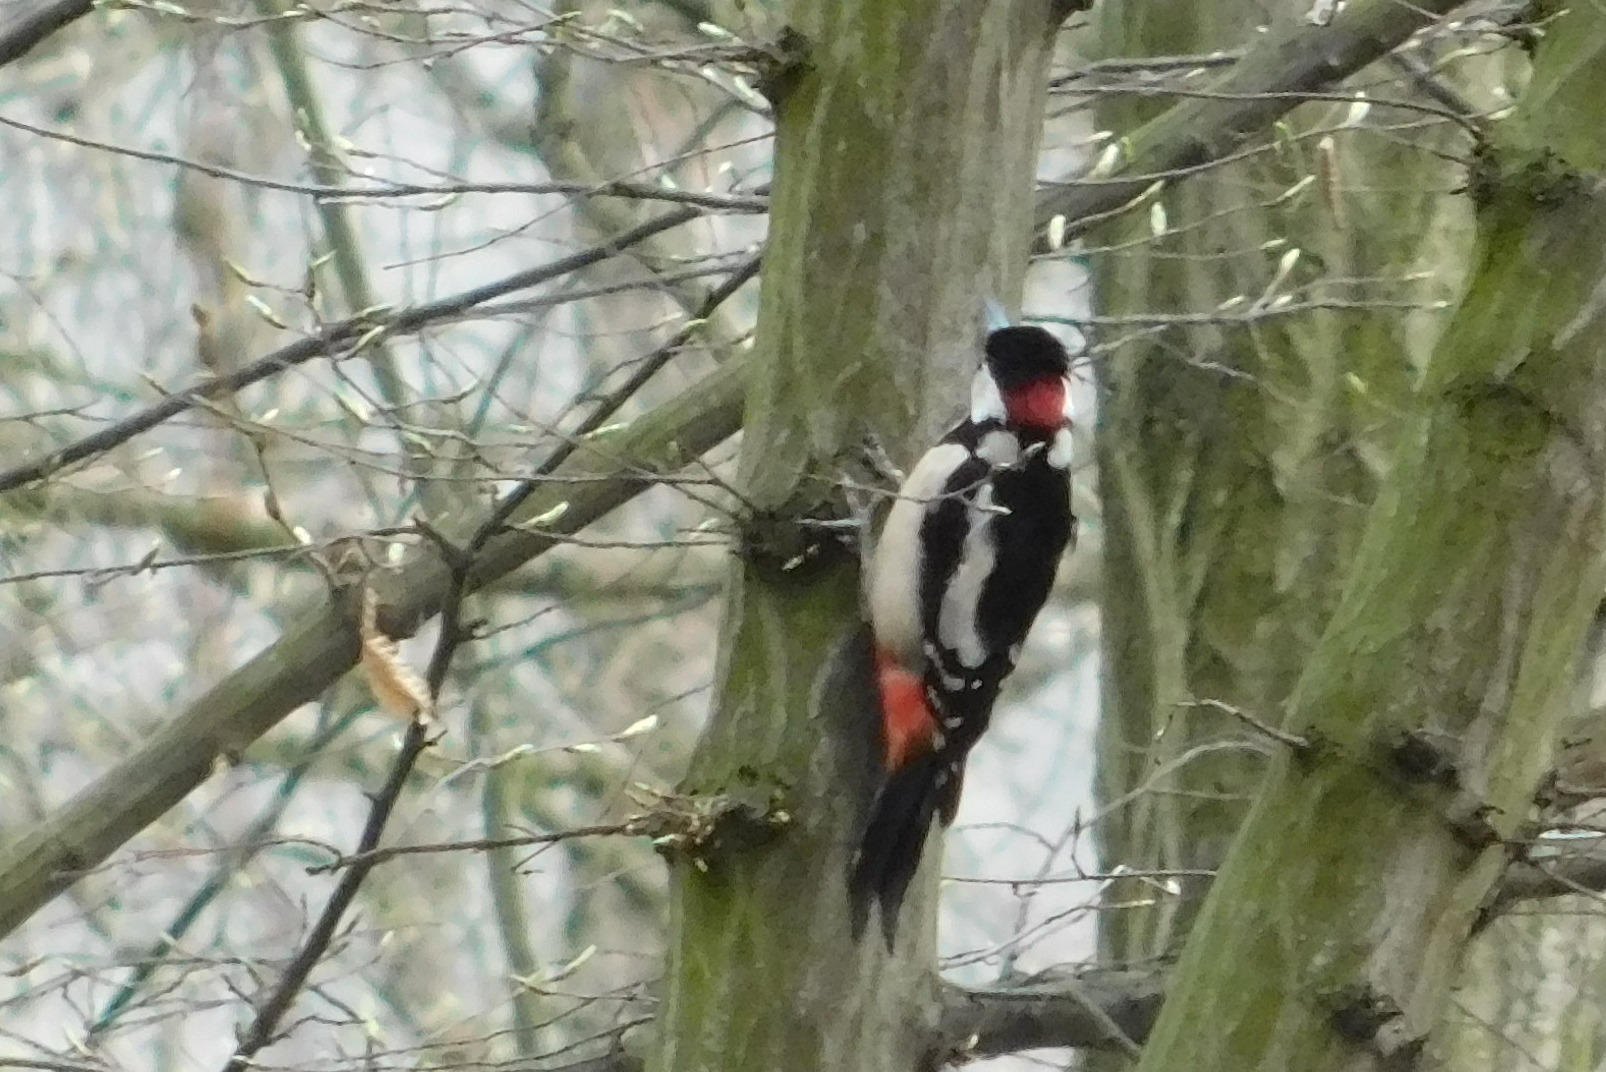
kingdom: Animalia
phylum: Chordata
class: Aves
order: Piciformes
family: Picidae
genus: Dendrocopos
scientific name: Dendrocopos major
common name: Great spotted woodpecker
